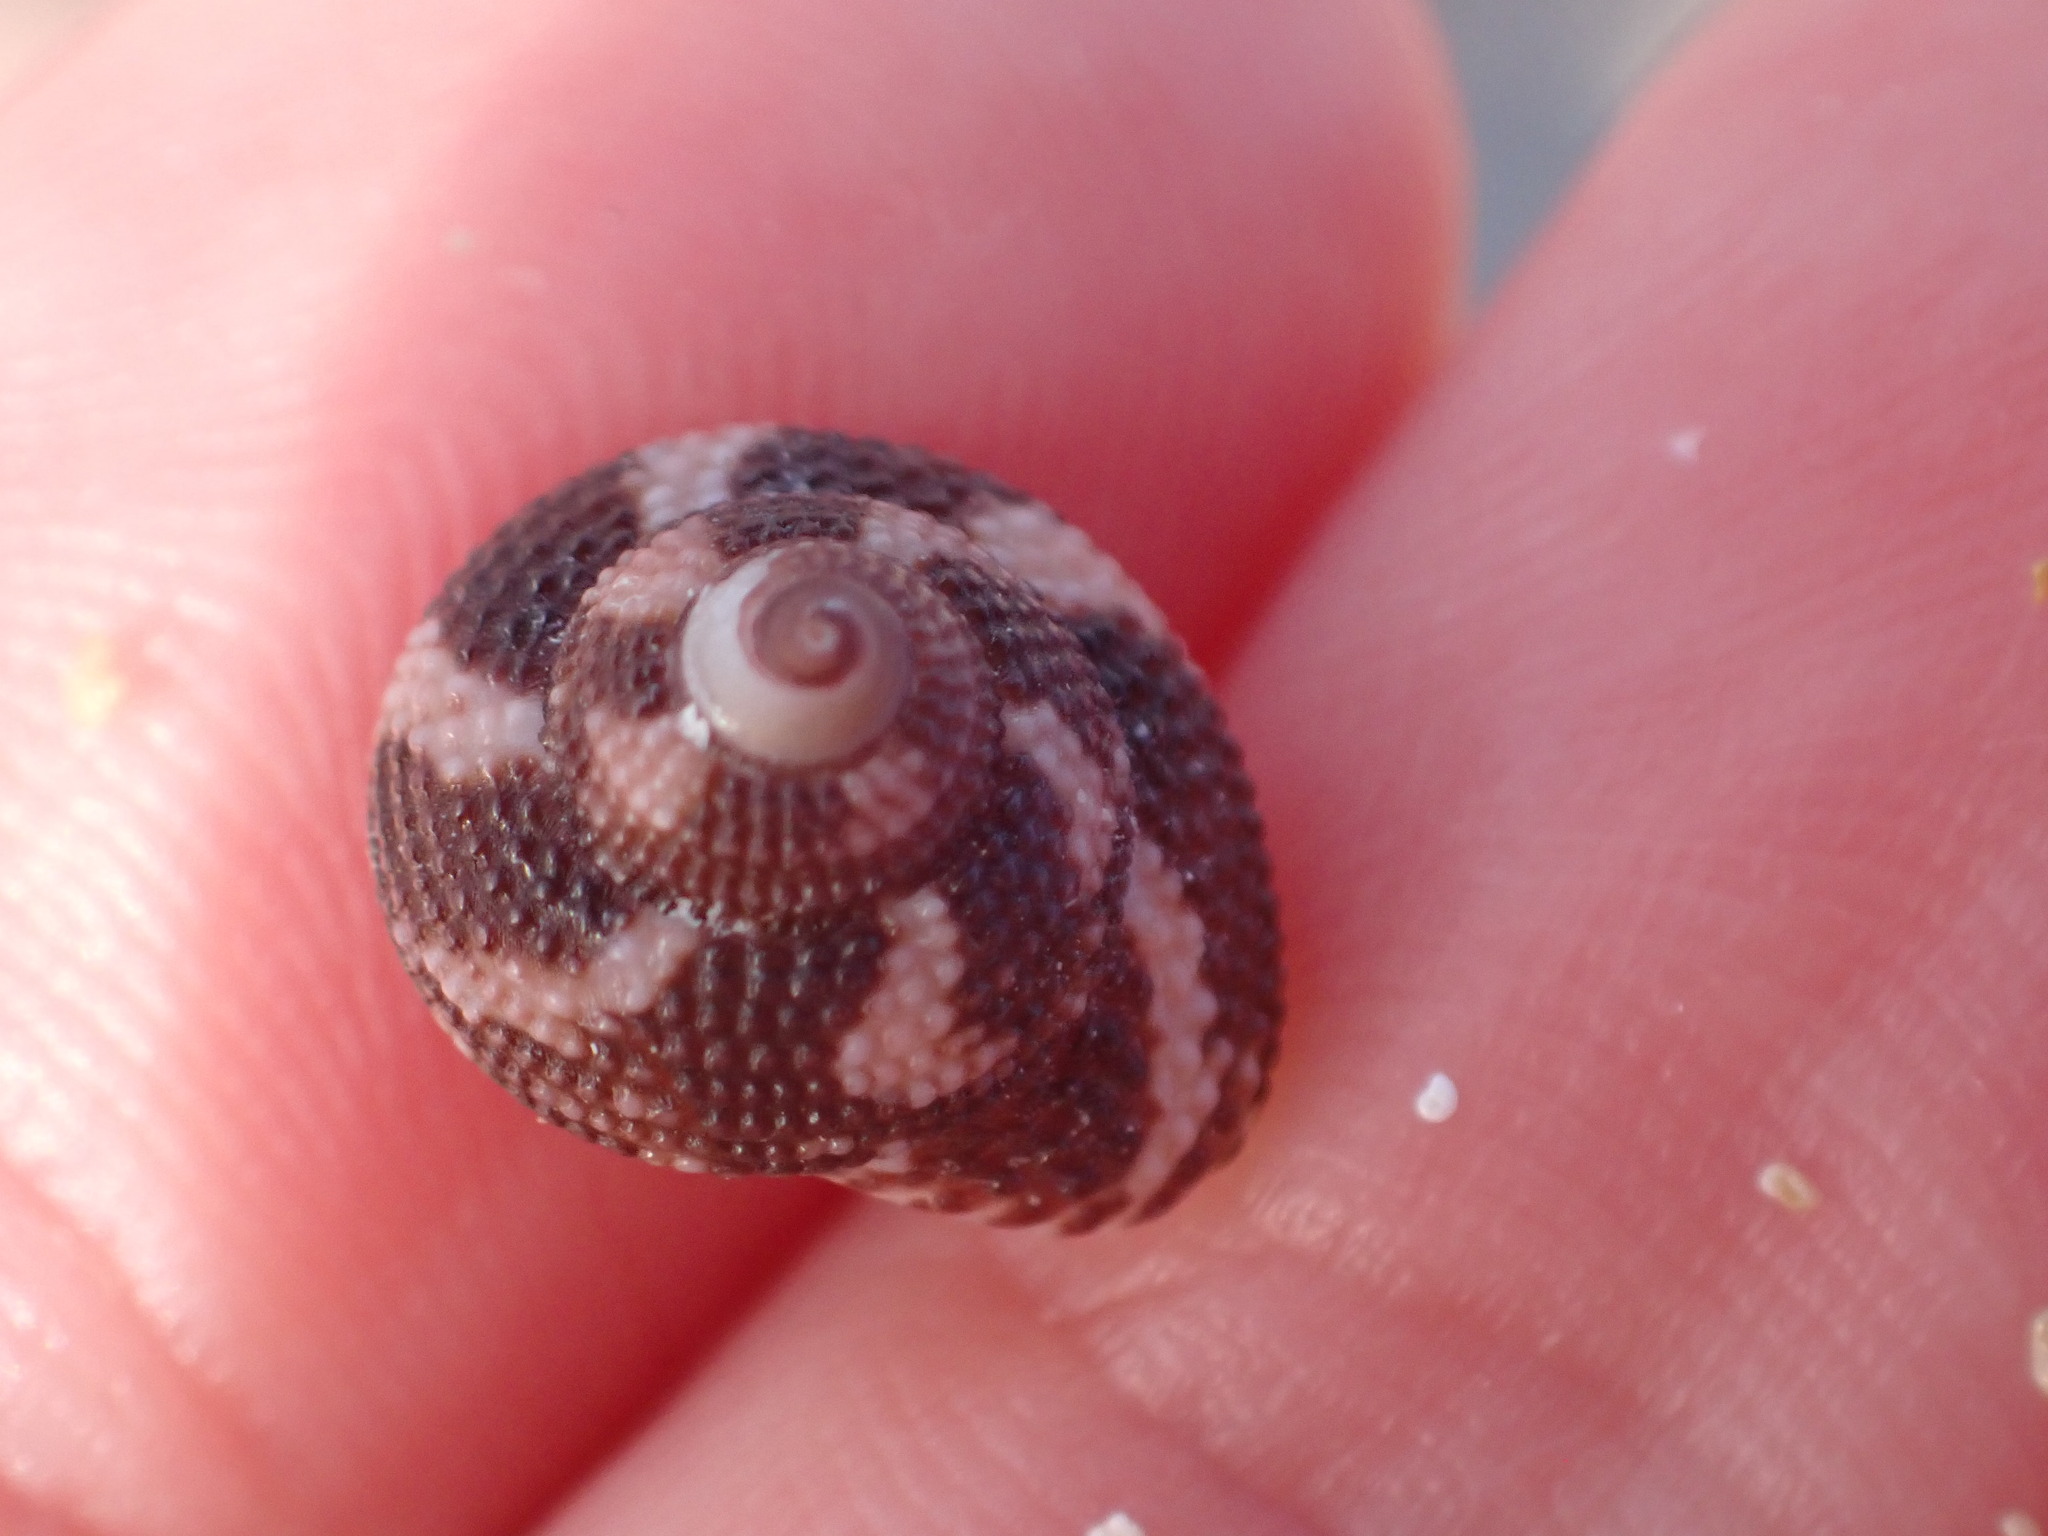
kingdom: Animalia
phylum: Mollusca
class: Gastropoda
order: Trochida
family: Trochidae
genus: Clanculus
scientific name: Clanculus cruciatus
